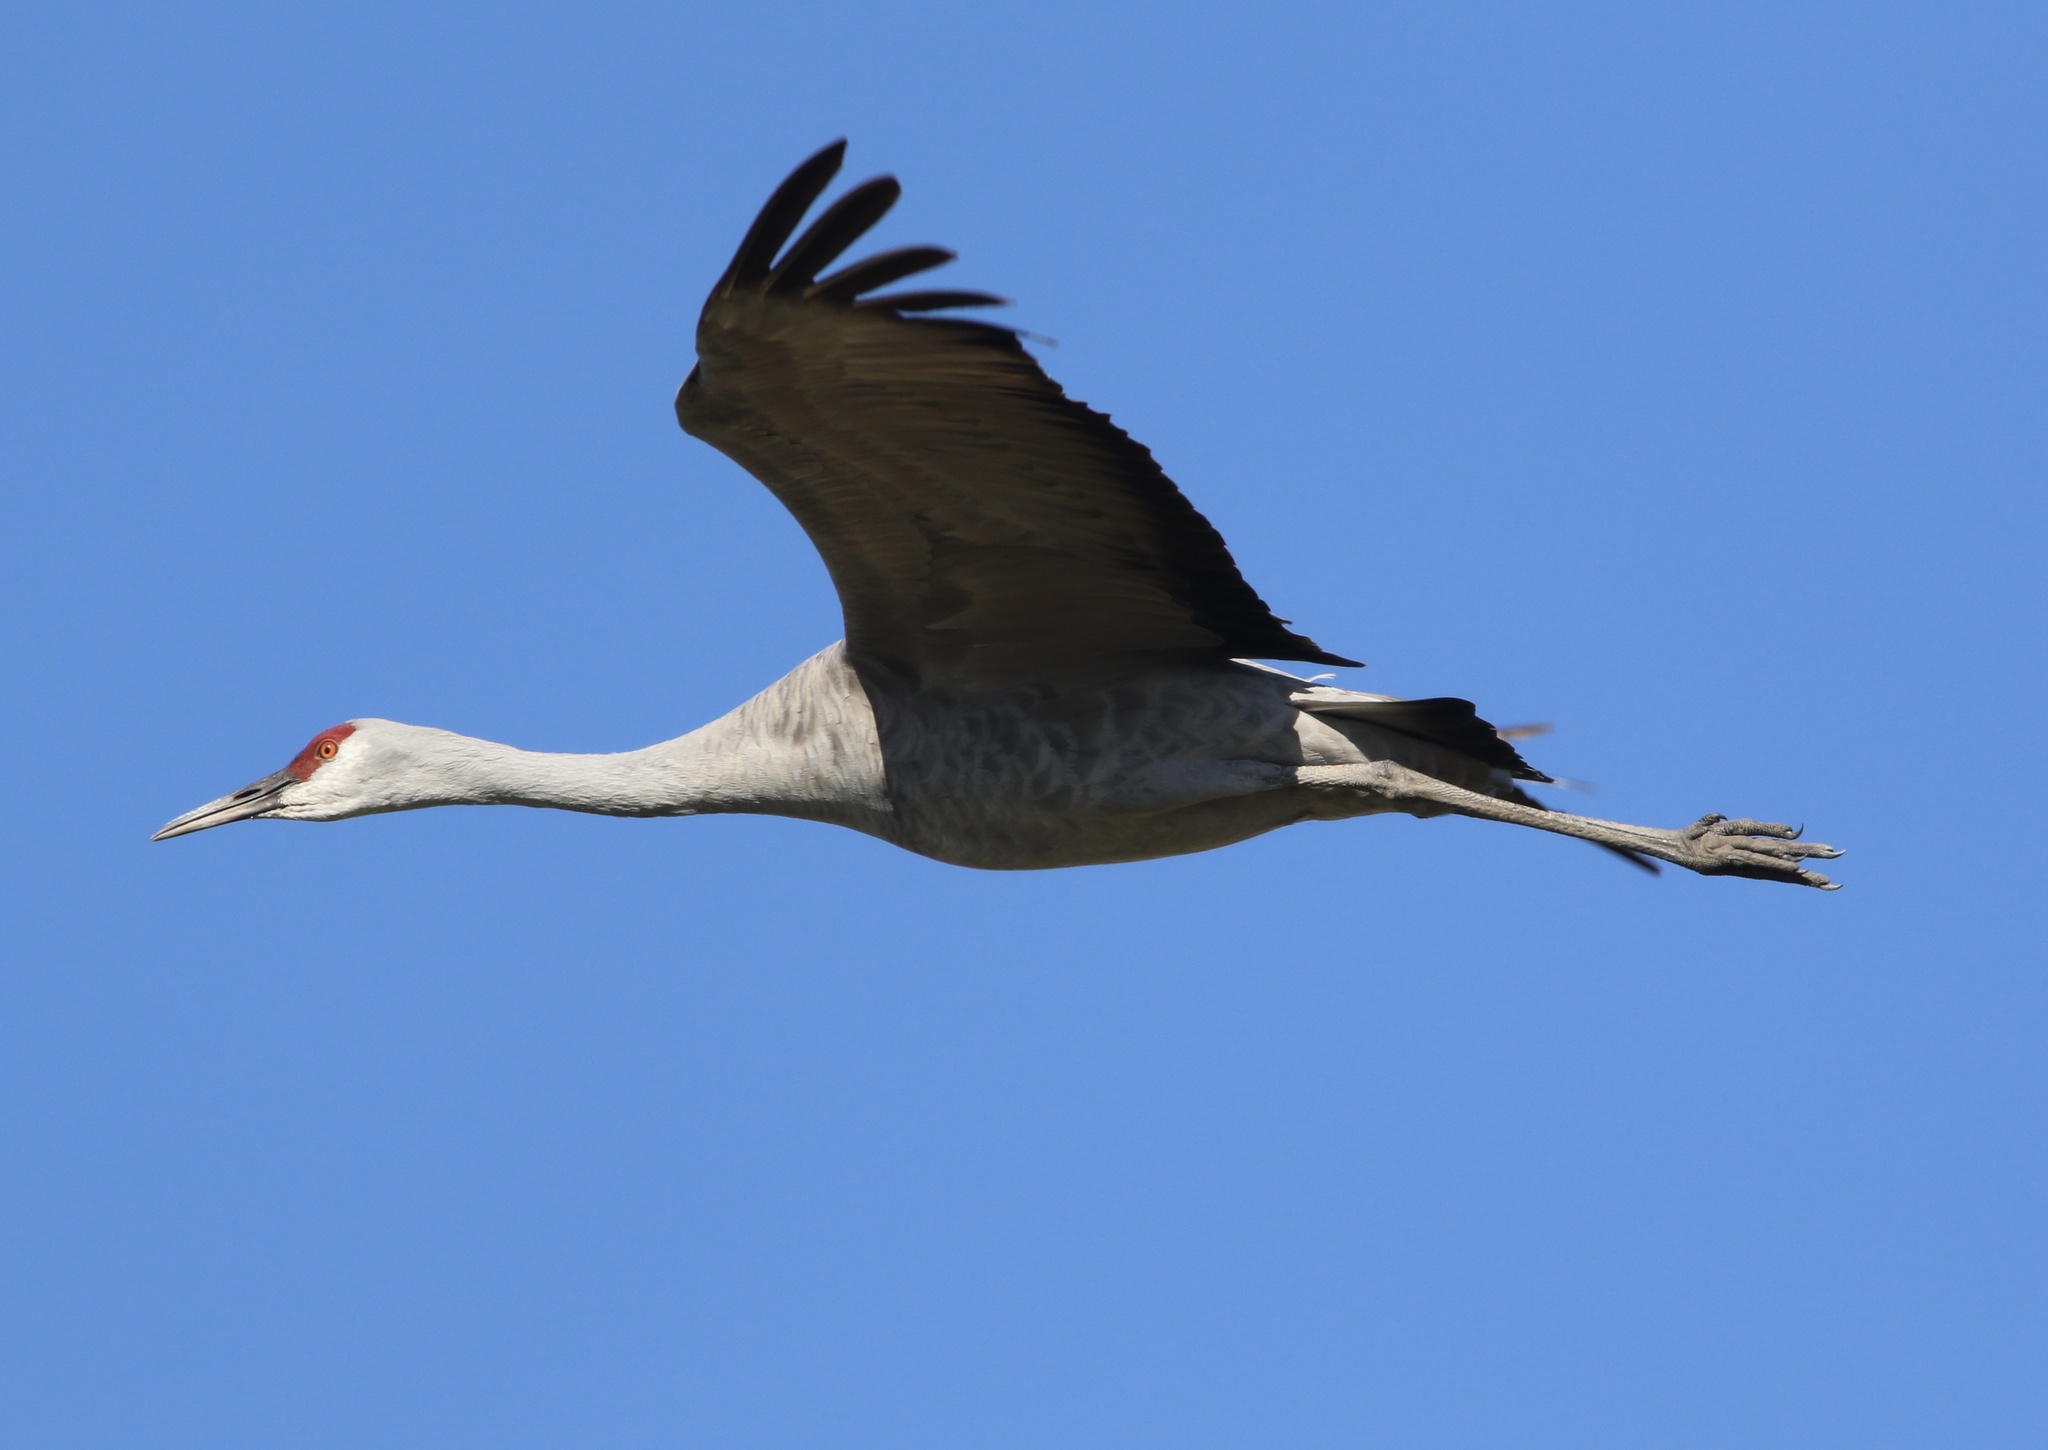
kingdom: Animalia
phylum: Chordata
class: Aves
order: Gruiformes
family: Gruidae
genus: Grus
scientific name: Grus canadensis
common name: Sandhill crane
